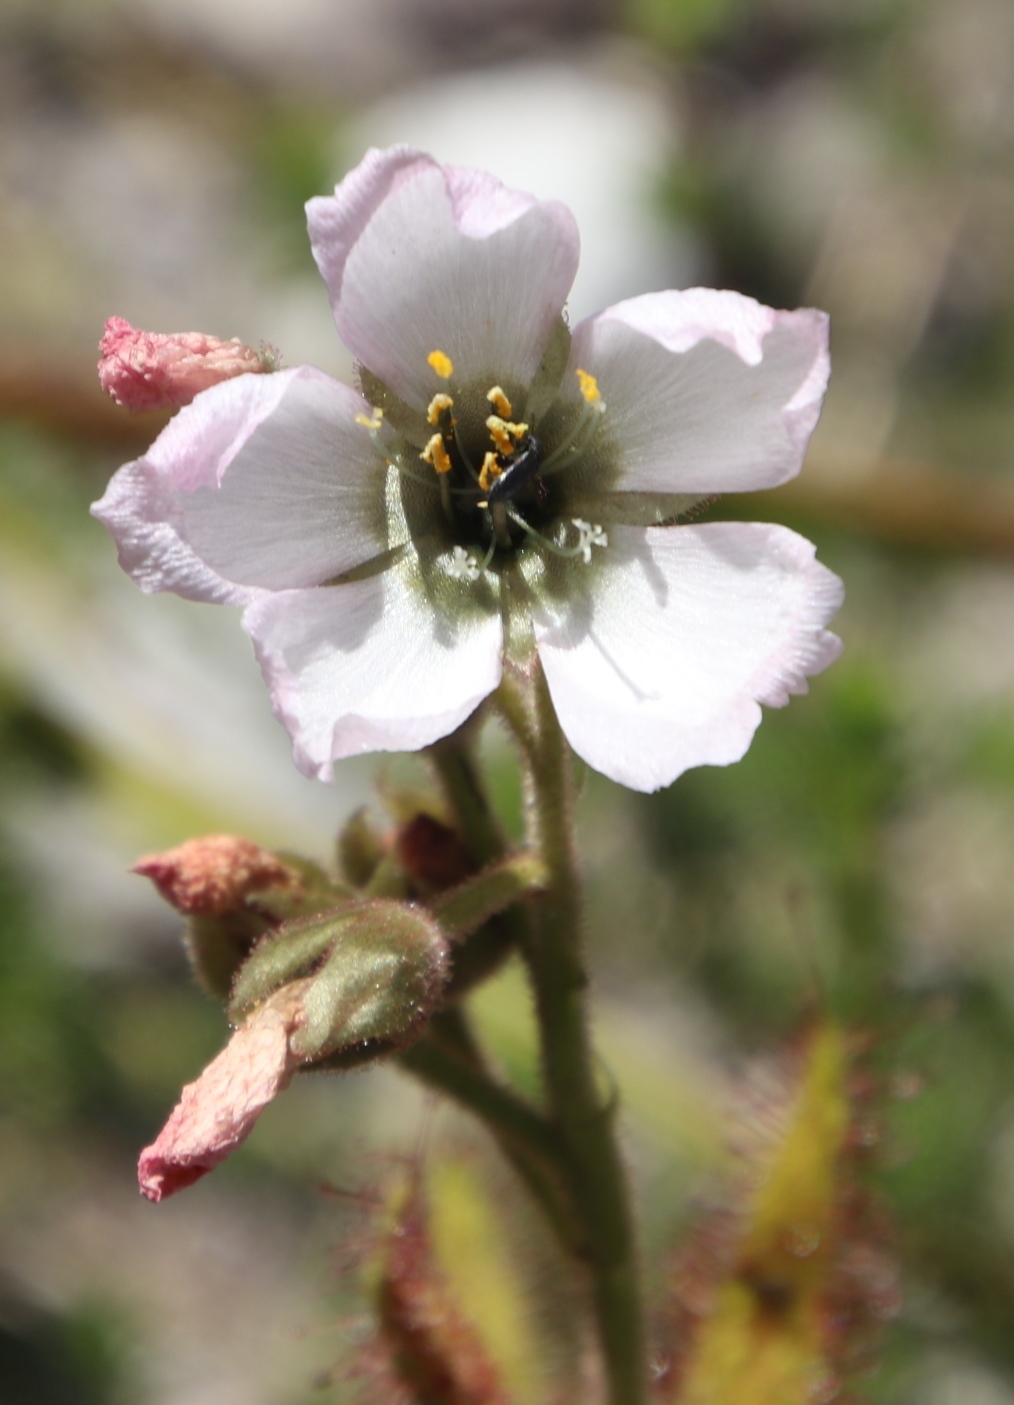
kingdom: Plantae
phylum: Tracheophyta
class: Magnoliopsida
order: Caryophyllales
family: Droseraceae
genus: Drosera
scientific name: Drosera cistiflora
